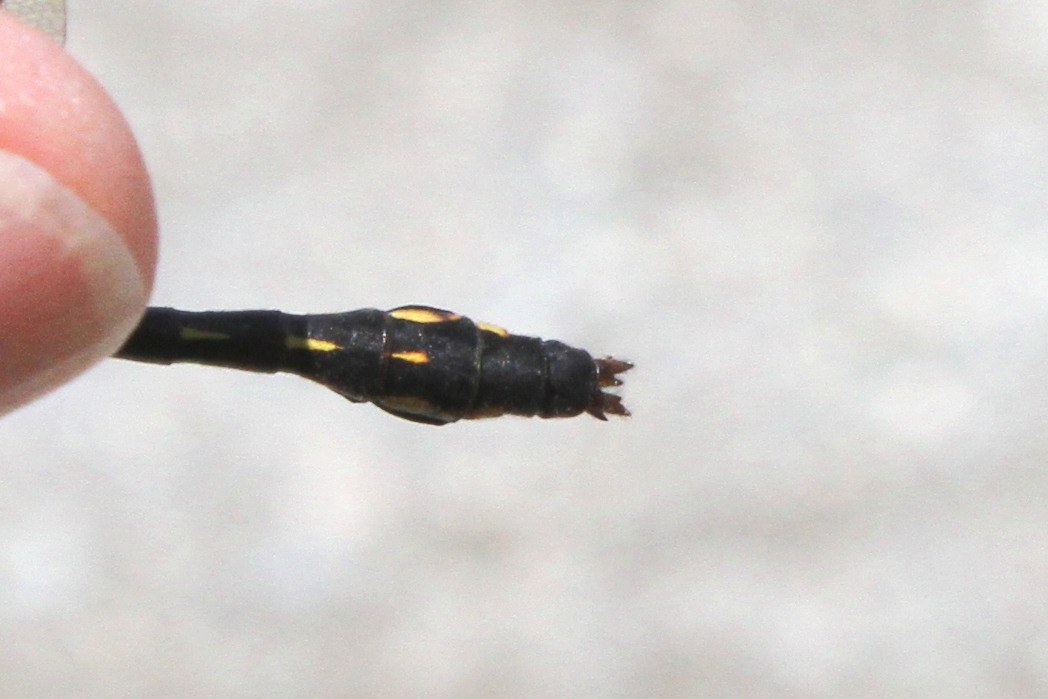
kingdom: Animalia
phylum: Arthropoda
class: Insecta
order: Odonata
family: Gomphidae
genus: Ophiogomphus
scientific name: Ophiogomphus mainensis
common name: Maine snaketail
